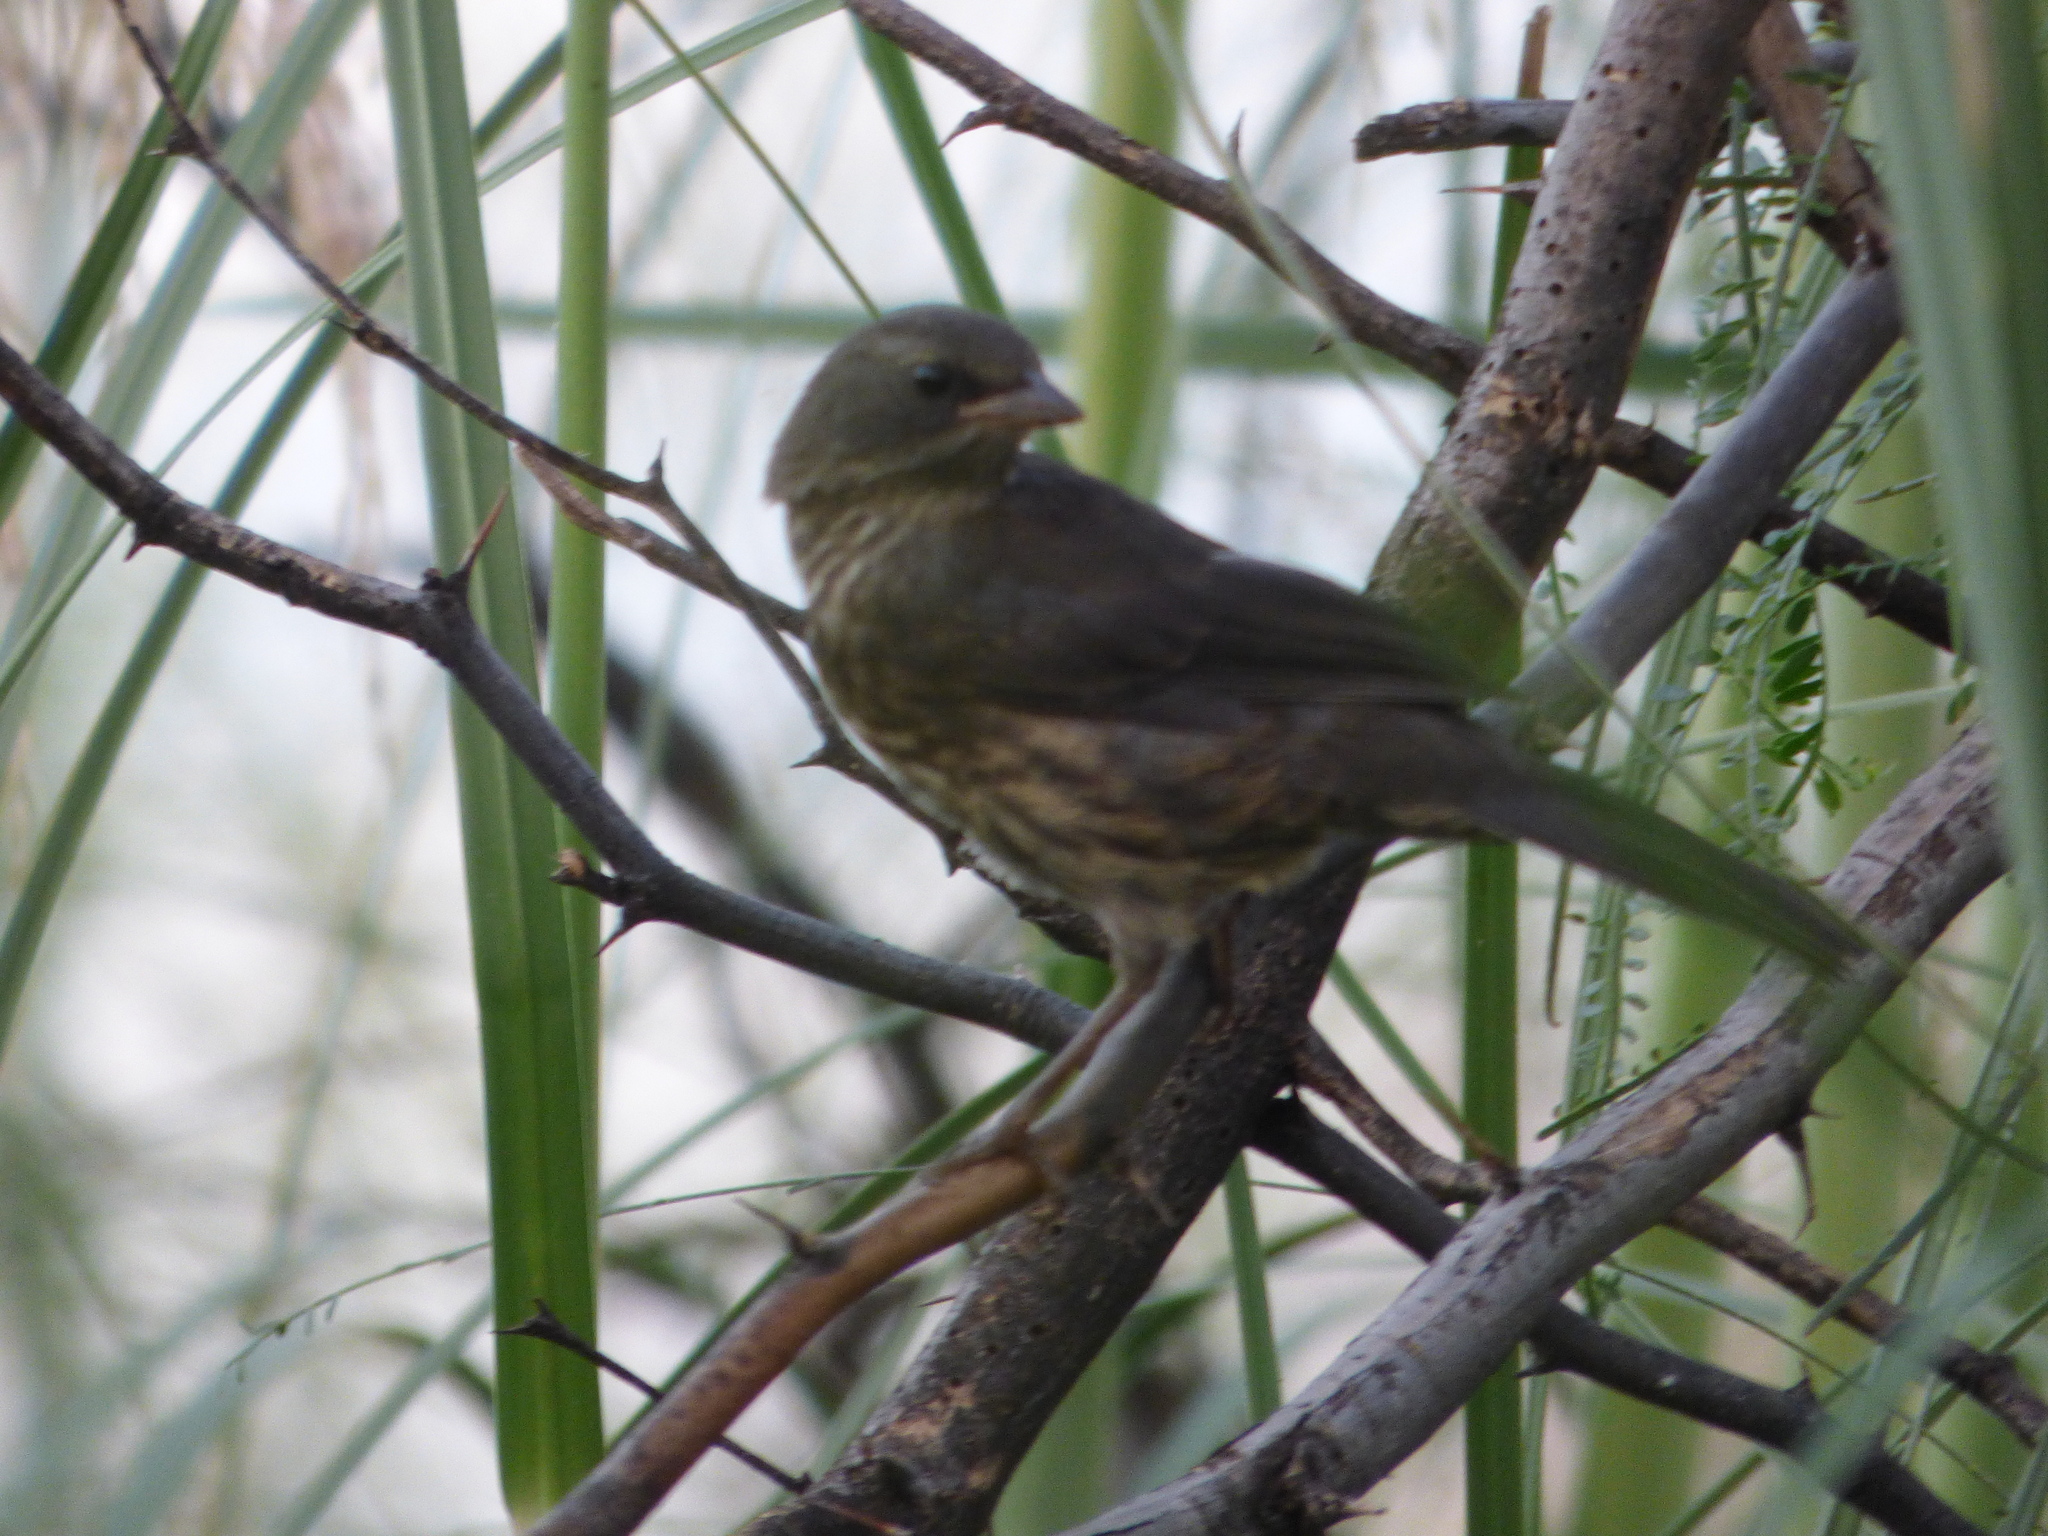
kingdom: Animalia
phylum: Chordata
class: Aves
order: Passeriformes
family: Thraupidae
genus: Poospiza
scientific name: Poospiza nigrorufa
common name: Black-and-rufous warbling finch
